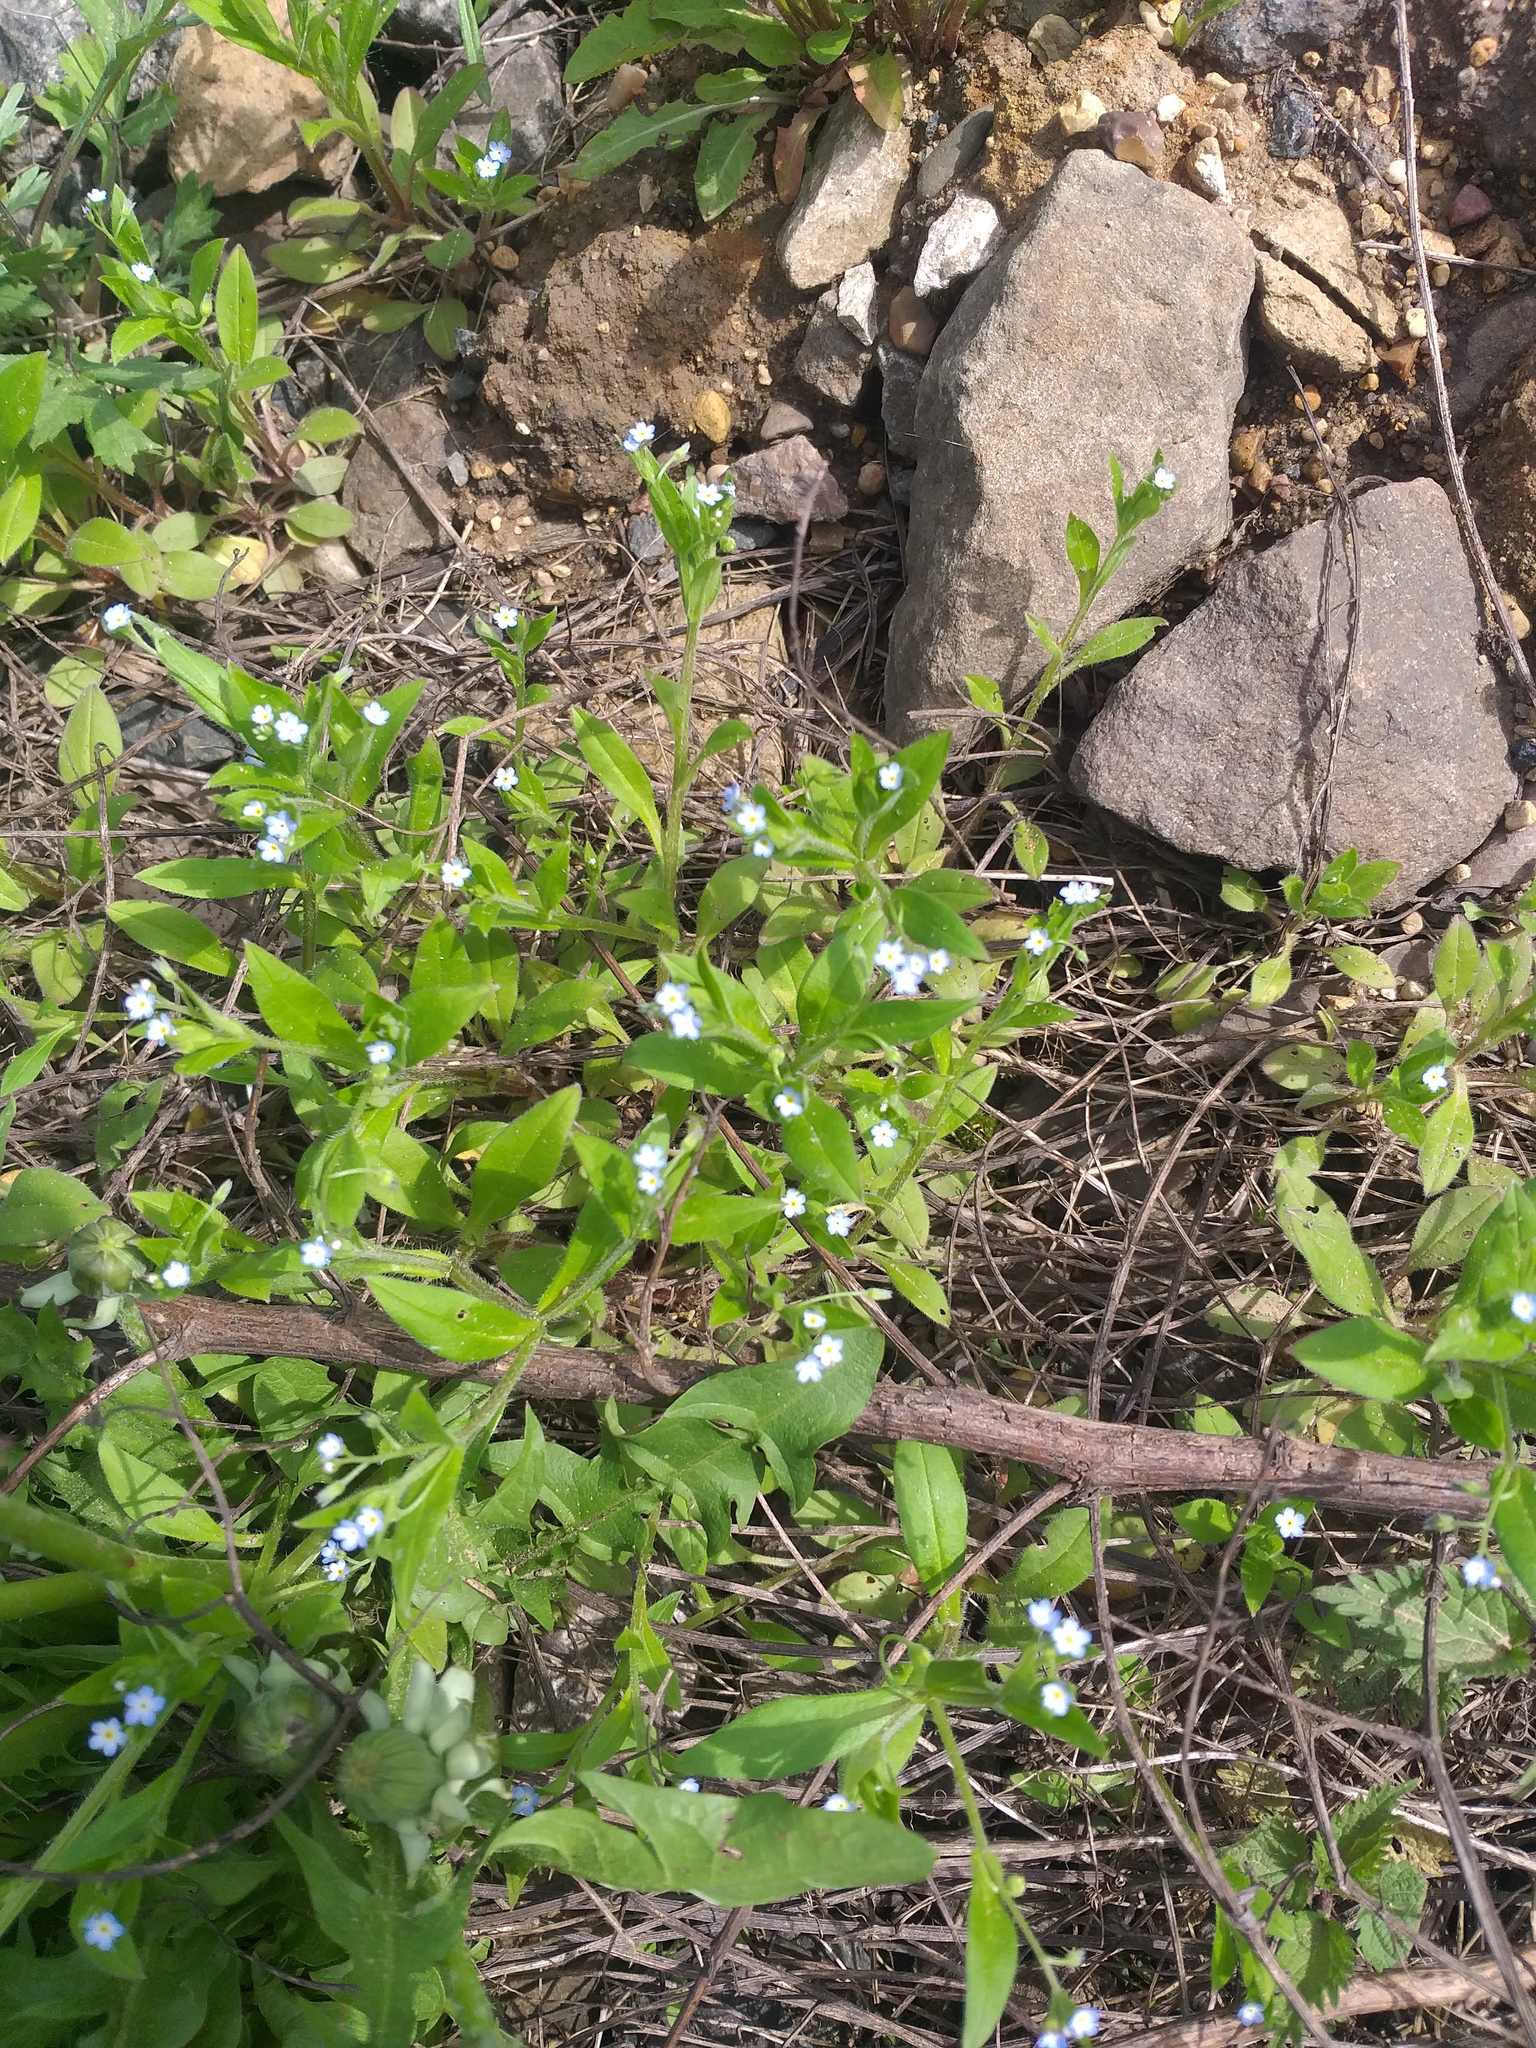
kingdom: Plantae
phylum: Tracheophyta
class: Magnoliopsida
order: Boraginales
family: Boraginaceae
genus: Myosotis
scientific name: Myosotis sparsiflora
